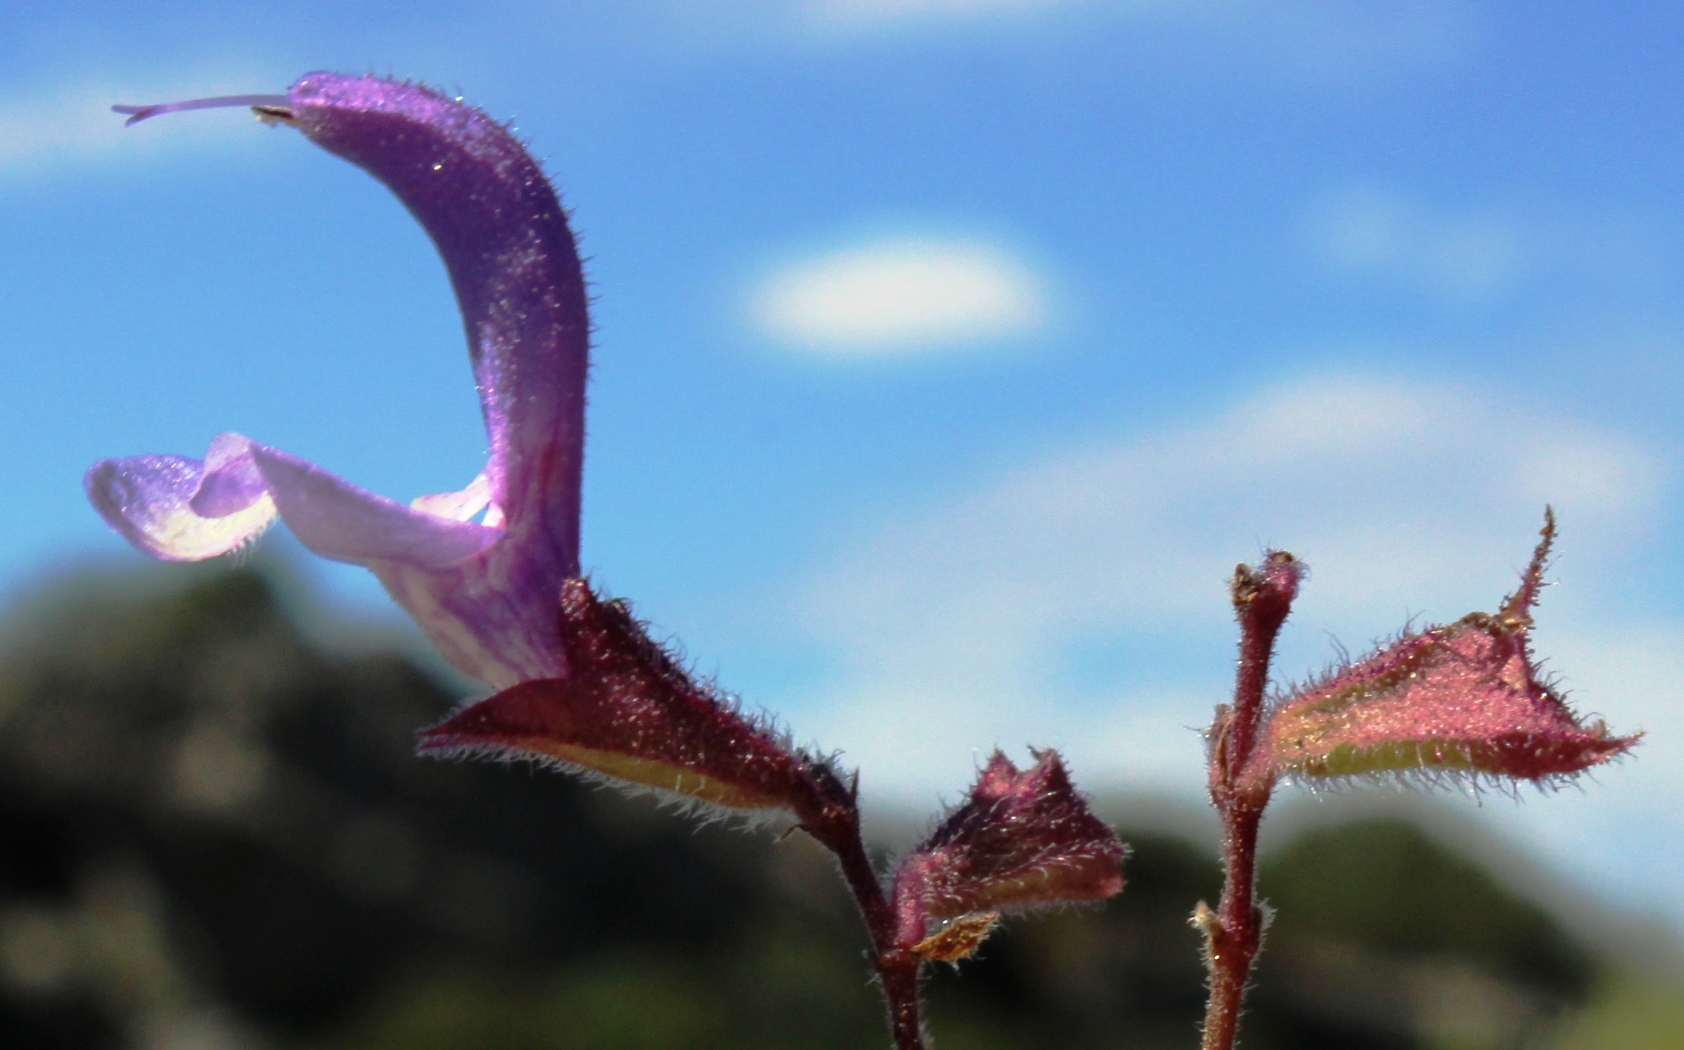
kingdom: Plantae
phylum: Tracheophyta
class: Magnoliopsida
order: Lamiales
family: Lamiaceae
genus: Salvia
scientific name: Salvia chamelaeagnea
